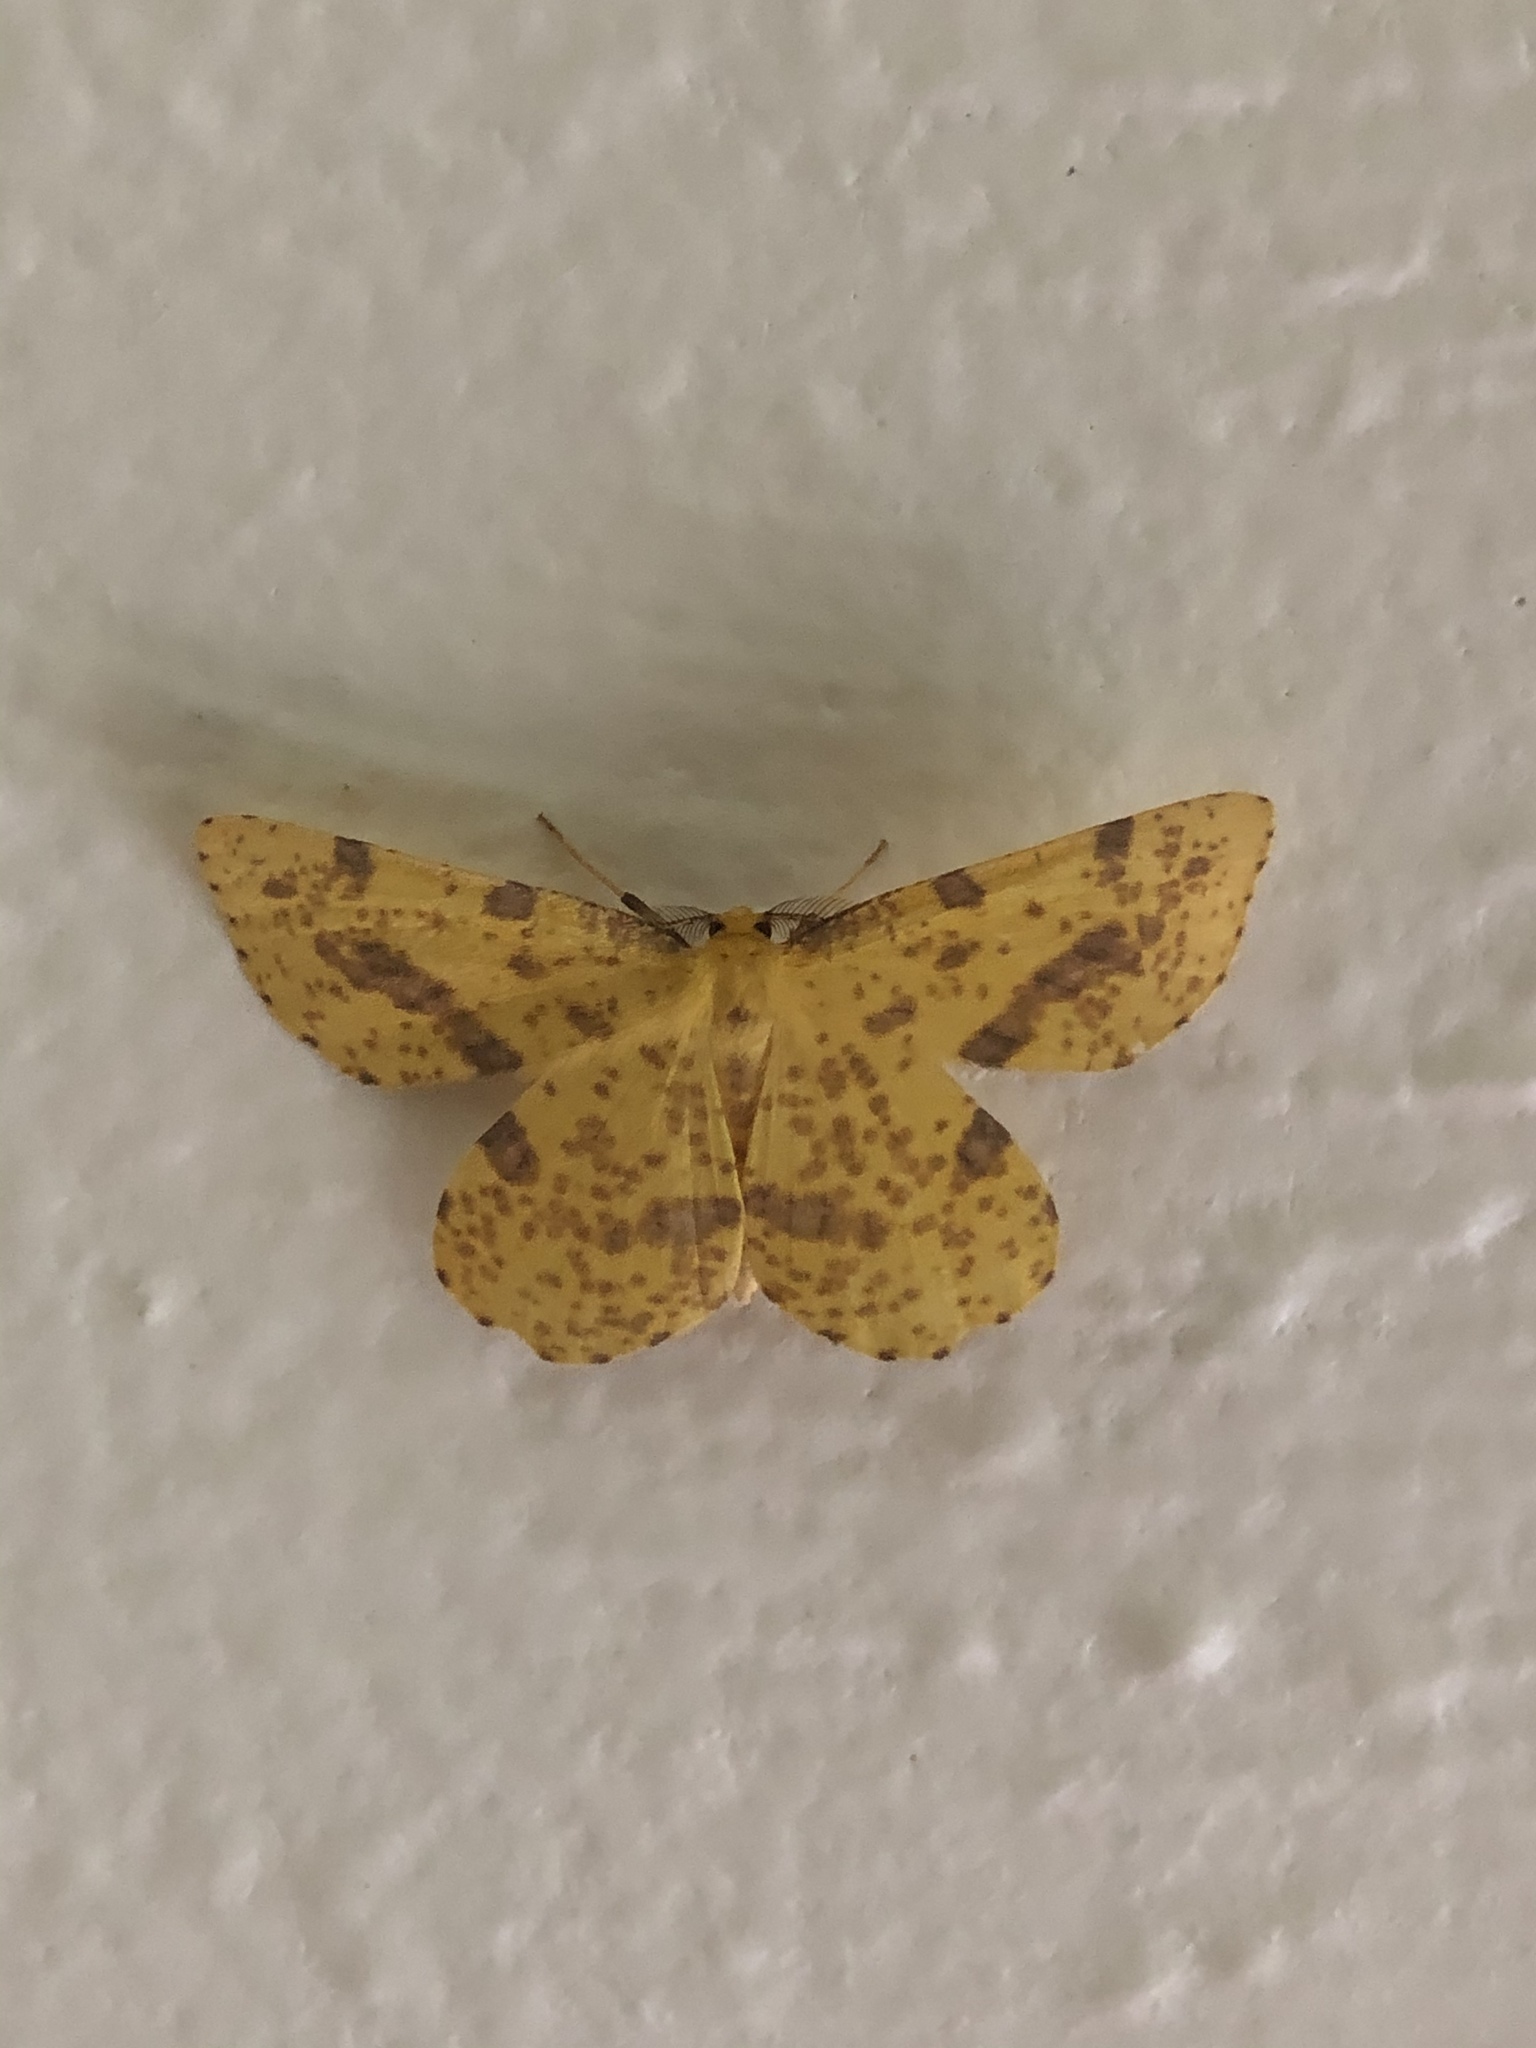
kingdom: Animalia
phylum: Arthropoda
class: Insecta
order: Lepidoptera
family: Geometridae
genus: Xanthotype
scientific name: Xanthotype
